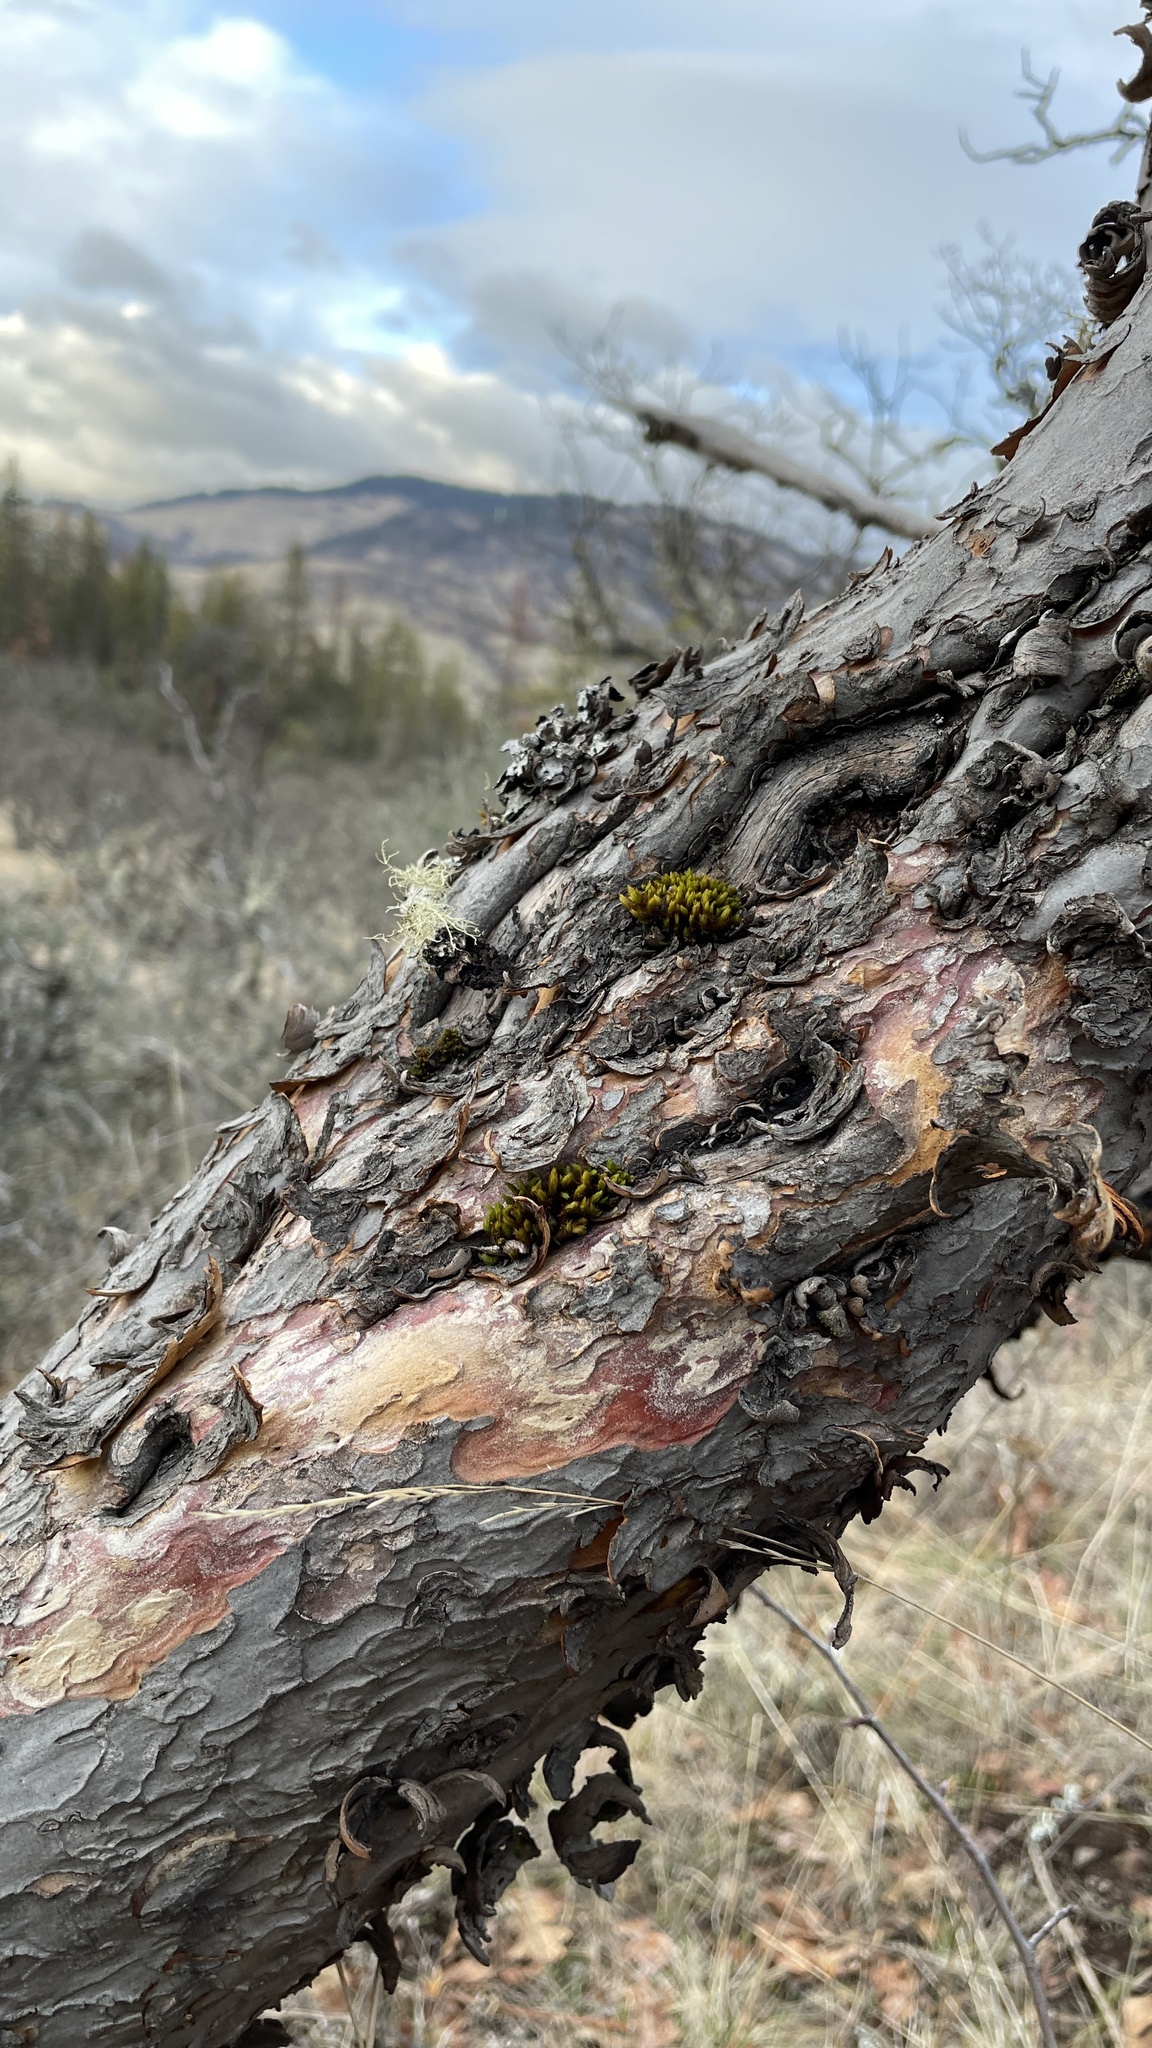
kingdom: Plantae
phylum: Tracheophyta
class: Magnoliopsida
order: Rosales
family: Rosaceae
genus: Cercocarpus
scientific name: Cercocarpus betuloides
